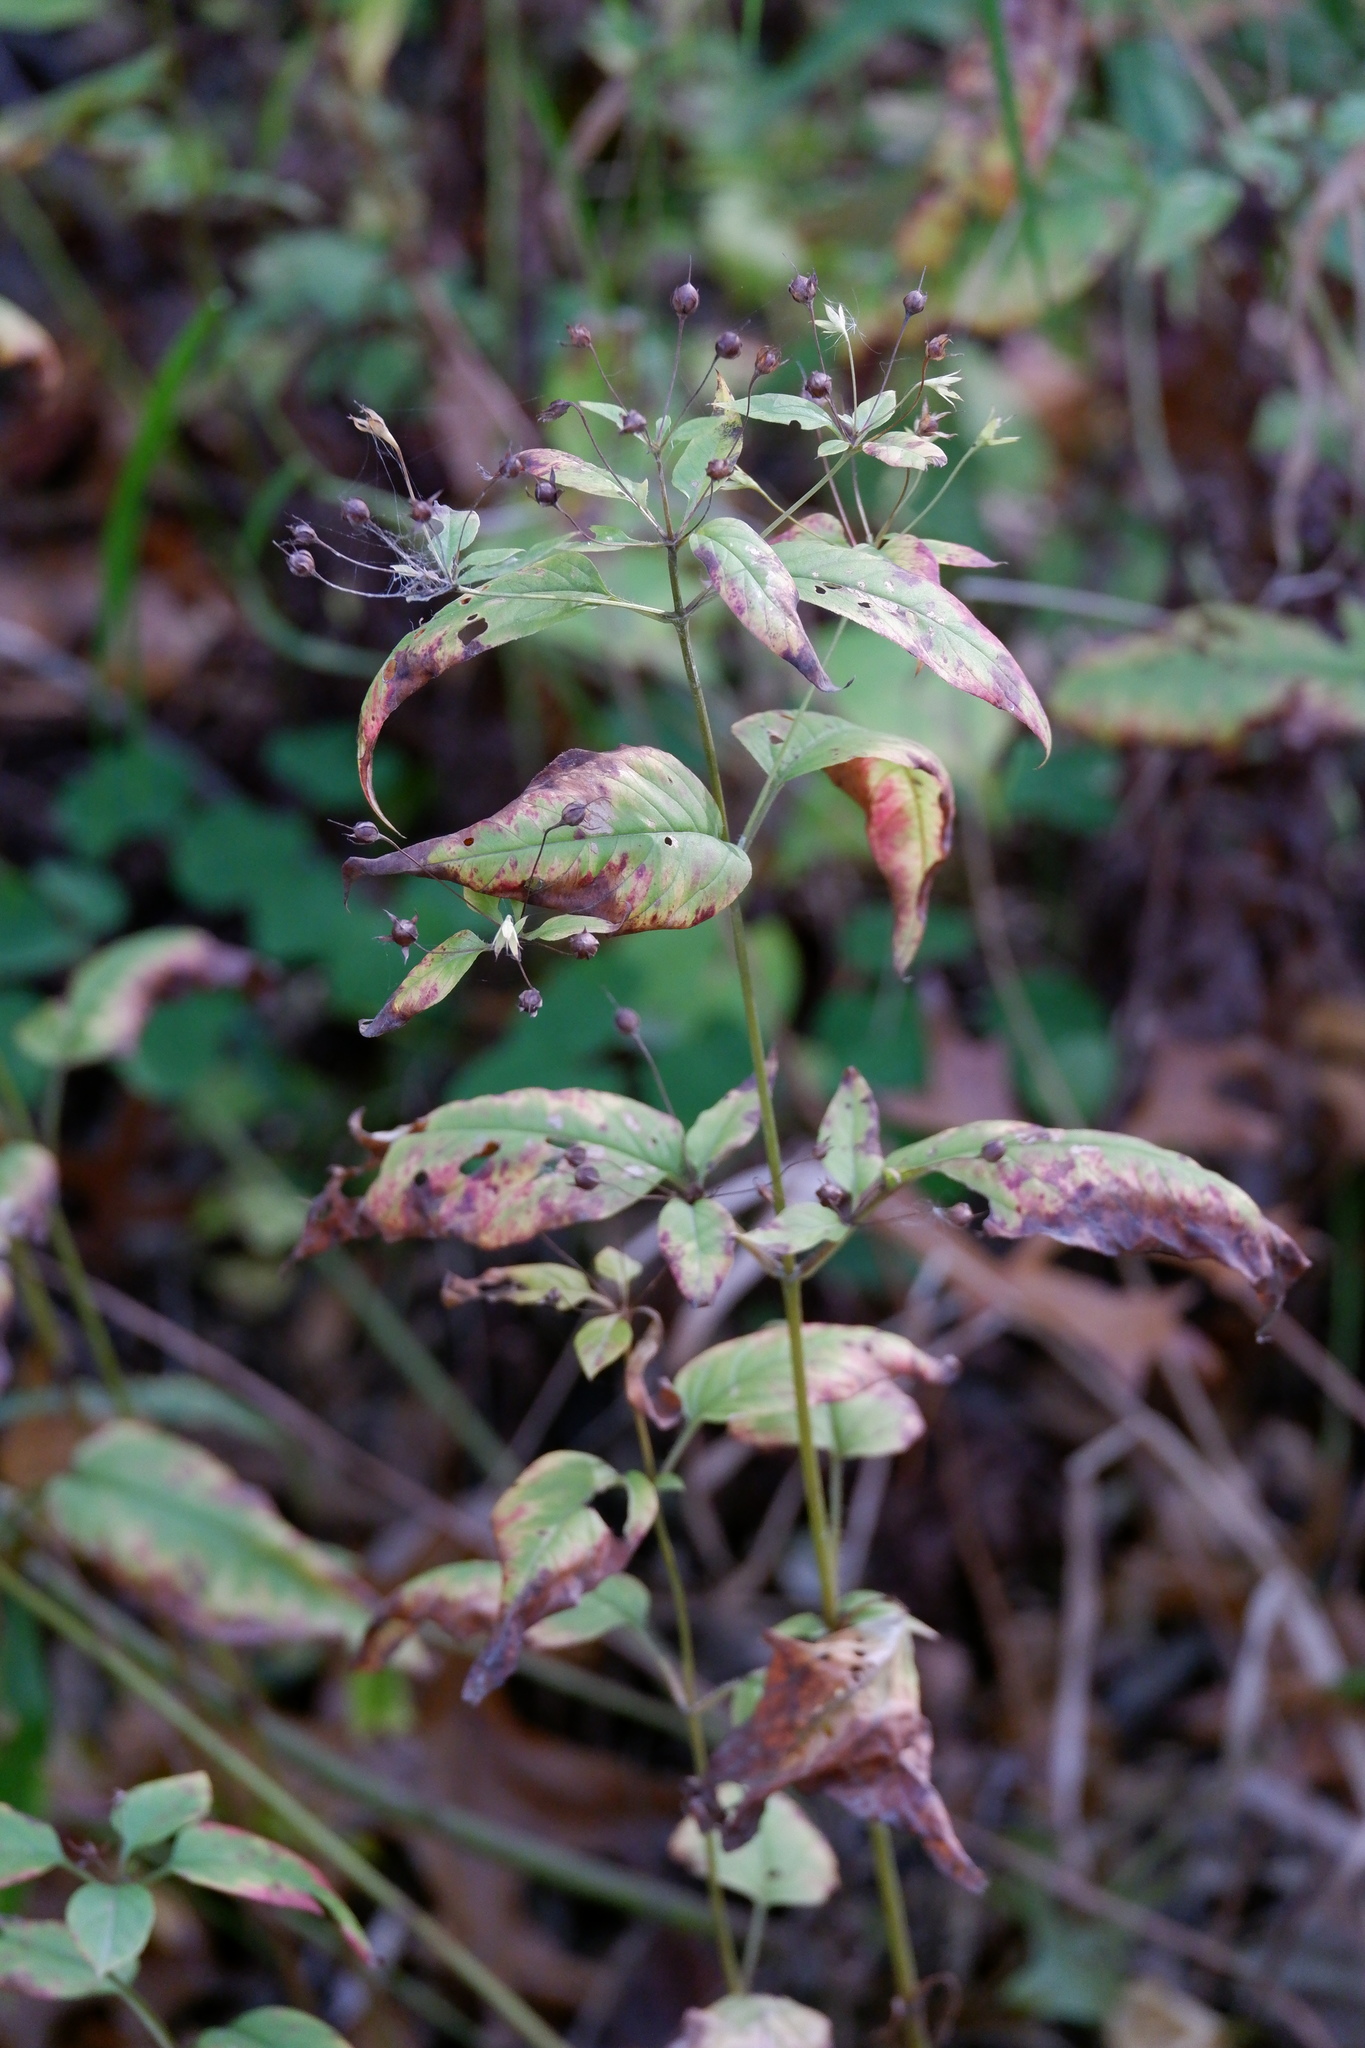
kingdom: Plantae
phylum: Tracheophyta
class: Magnoliopsida
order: Ericales
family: Primulaceae
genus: Lysimachia
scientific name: Lysimachia ciliata
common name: Fringed loosestrife
